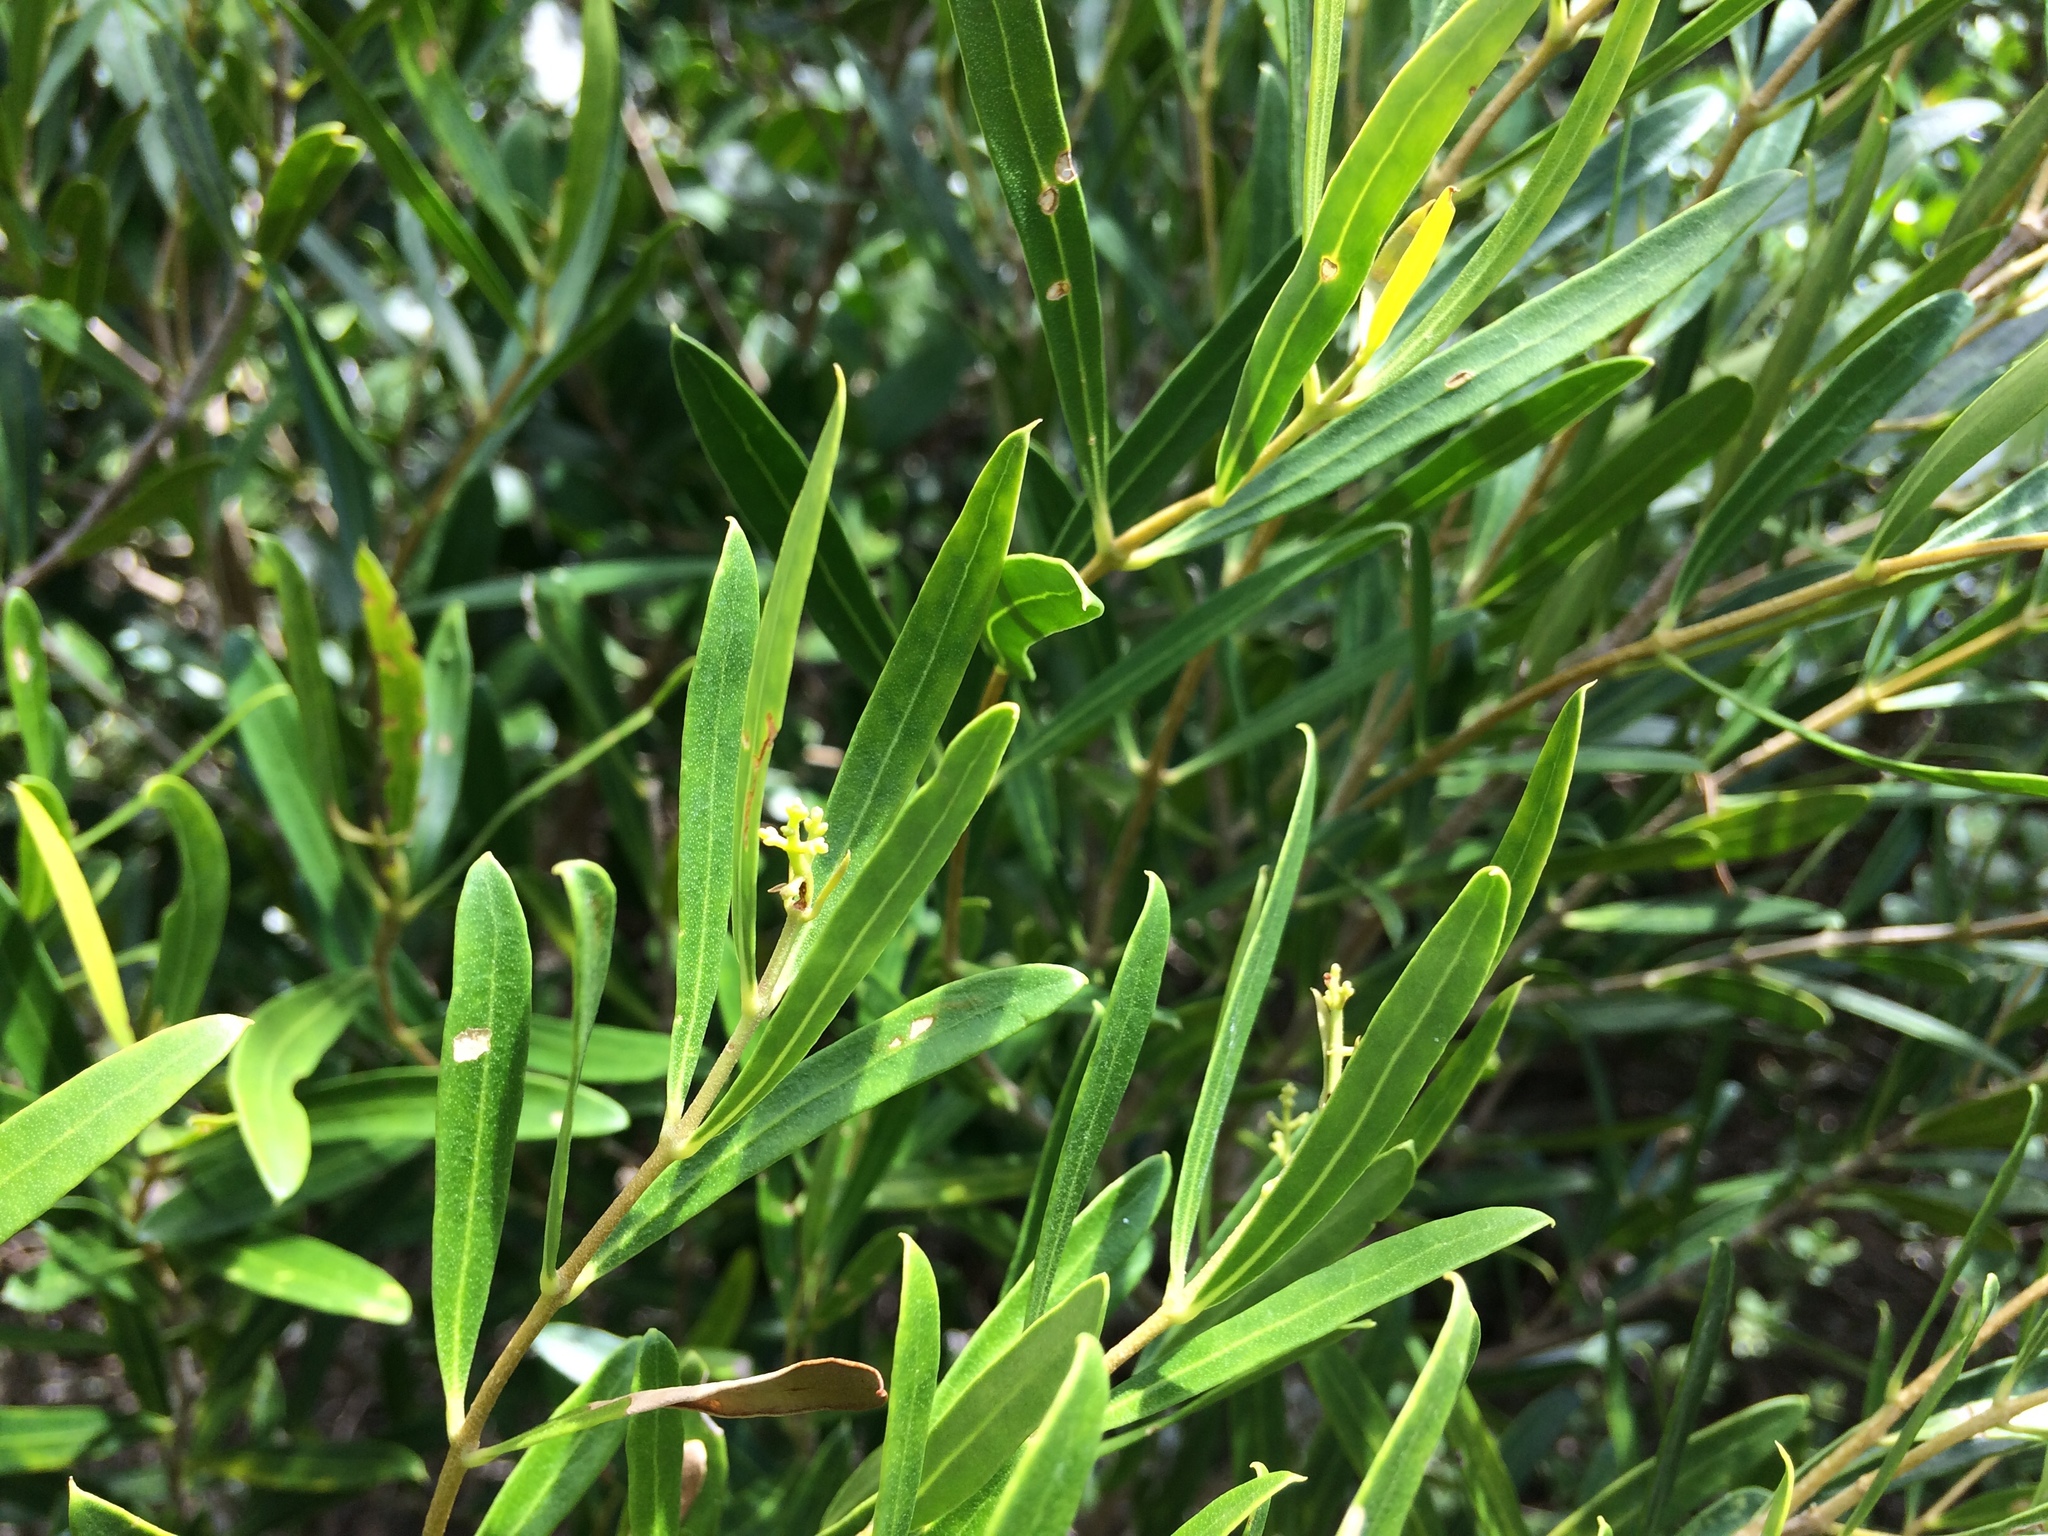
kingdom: Plantae
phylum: Tracheophyta
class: Magnoliopsida
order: Lamiales
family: Oleaceae
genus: Olea
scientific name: Olea exasperata
